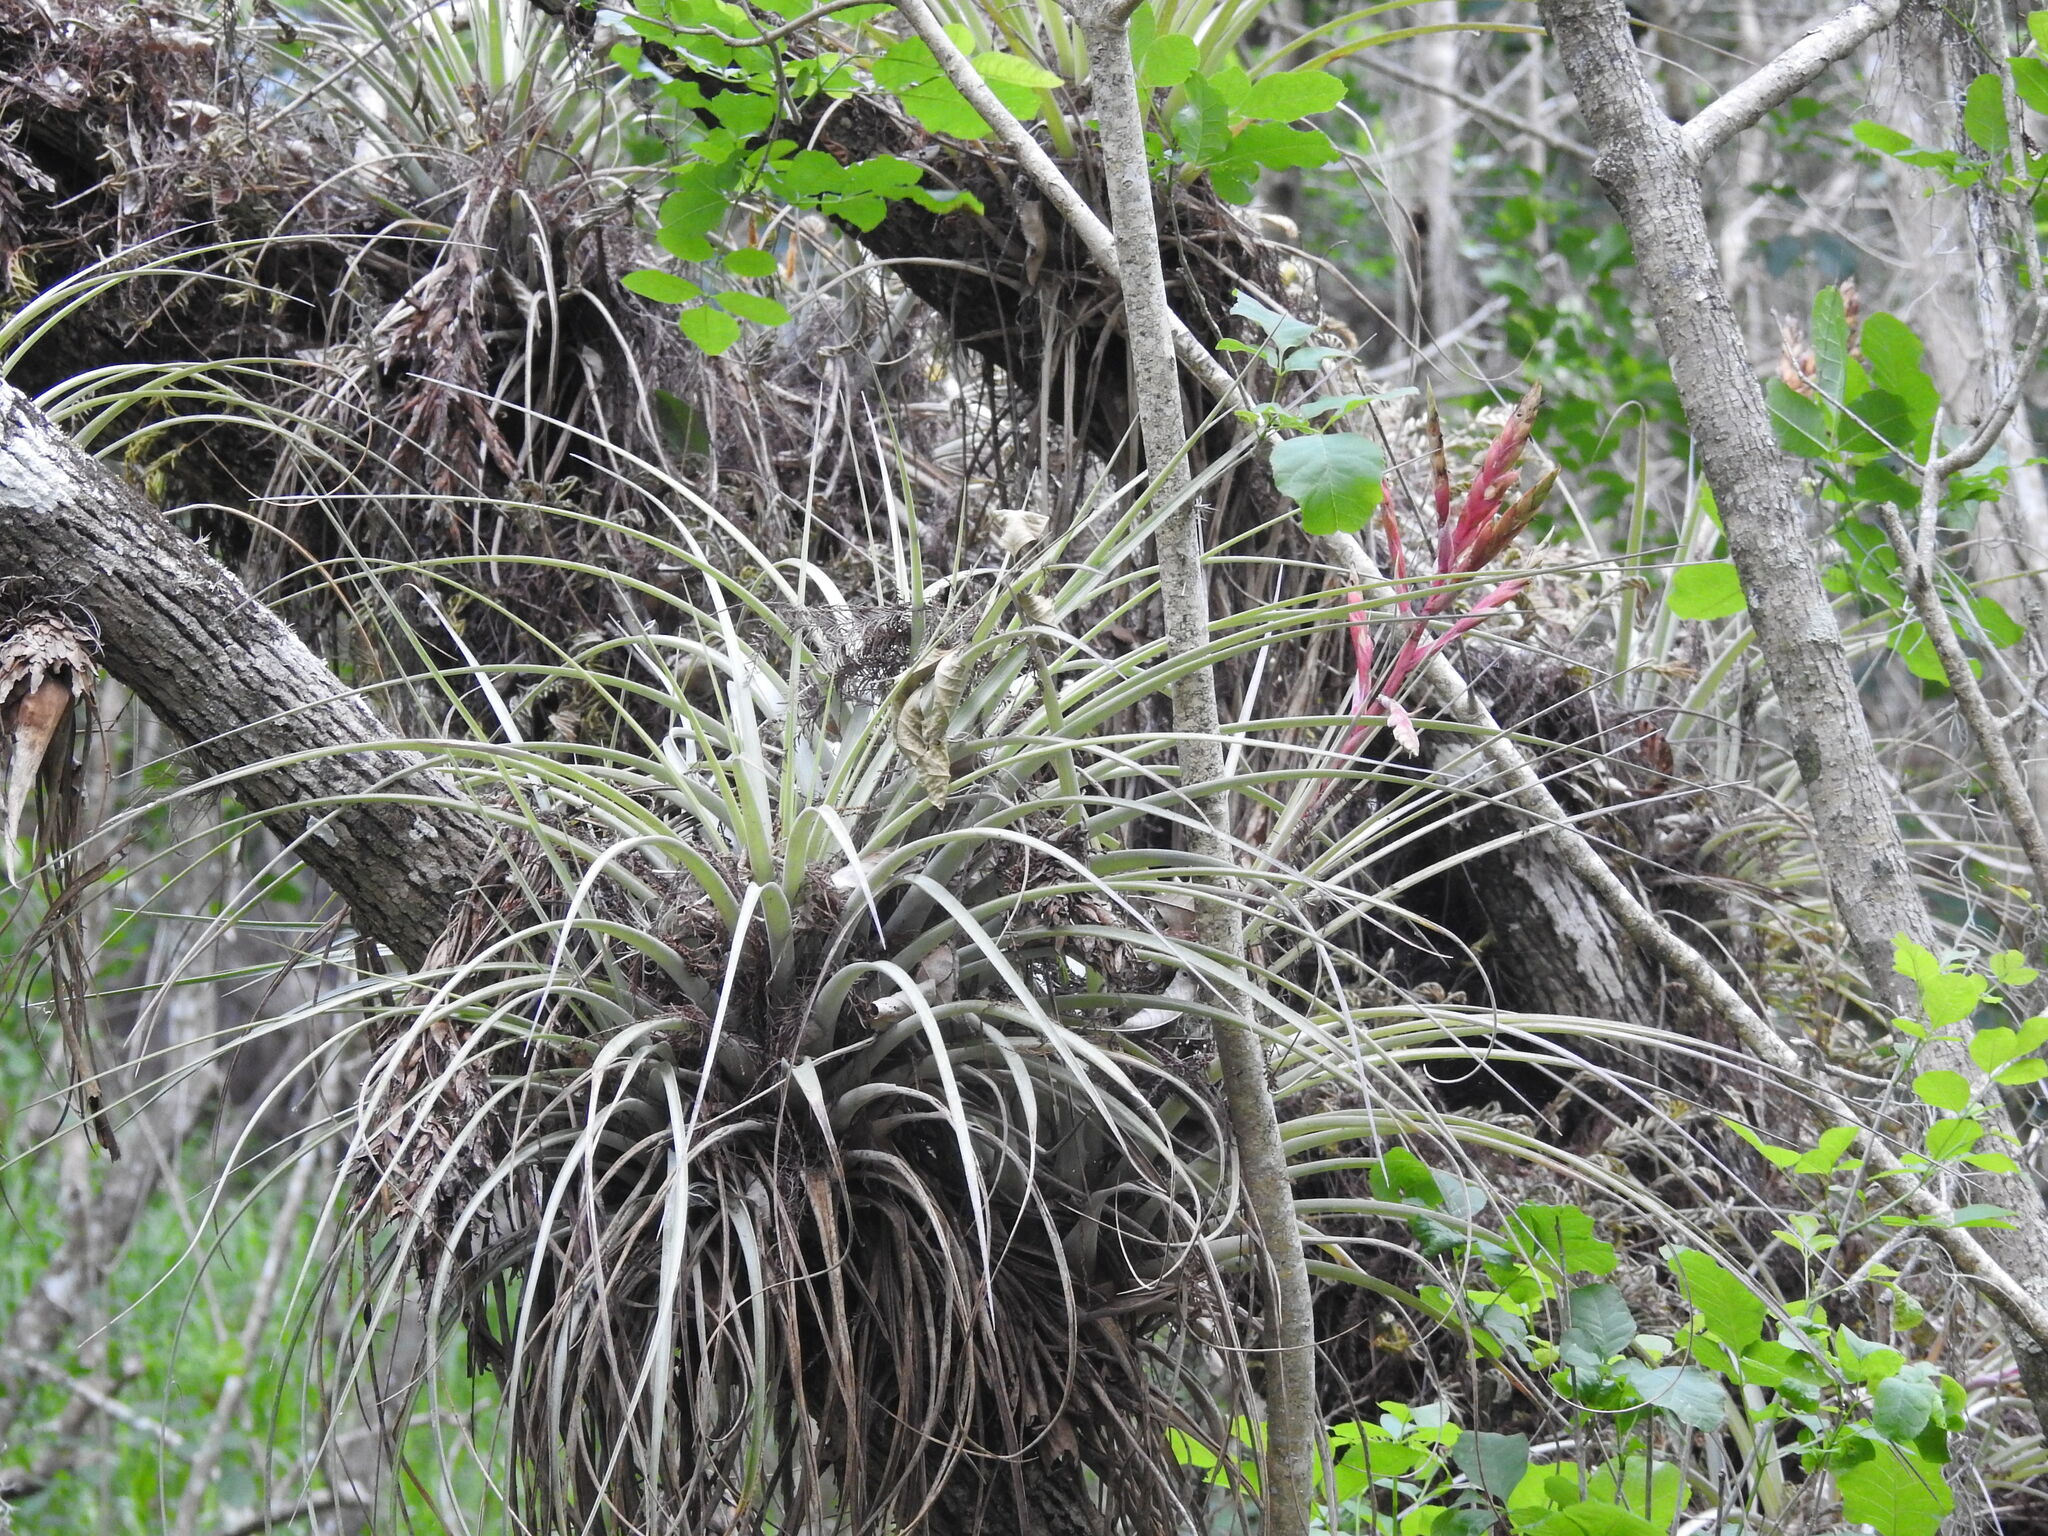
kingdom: Plantae
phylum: Tracheophyta
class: Liliopsida
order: Poales
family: Bromeliaceae
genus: Tillandsia
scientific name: Tillandsia fasciculata
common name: Giant airplant
